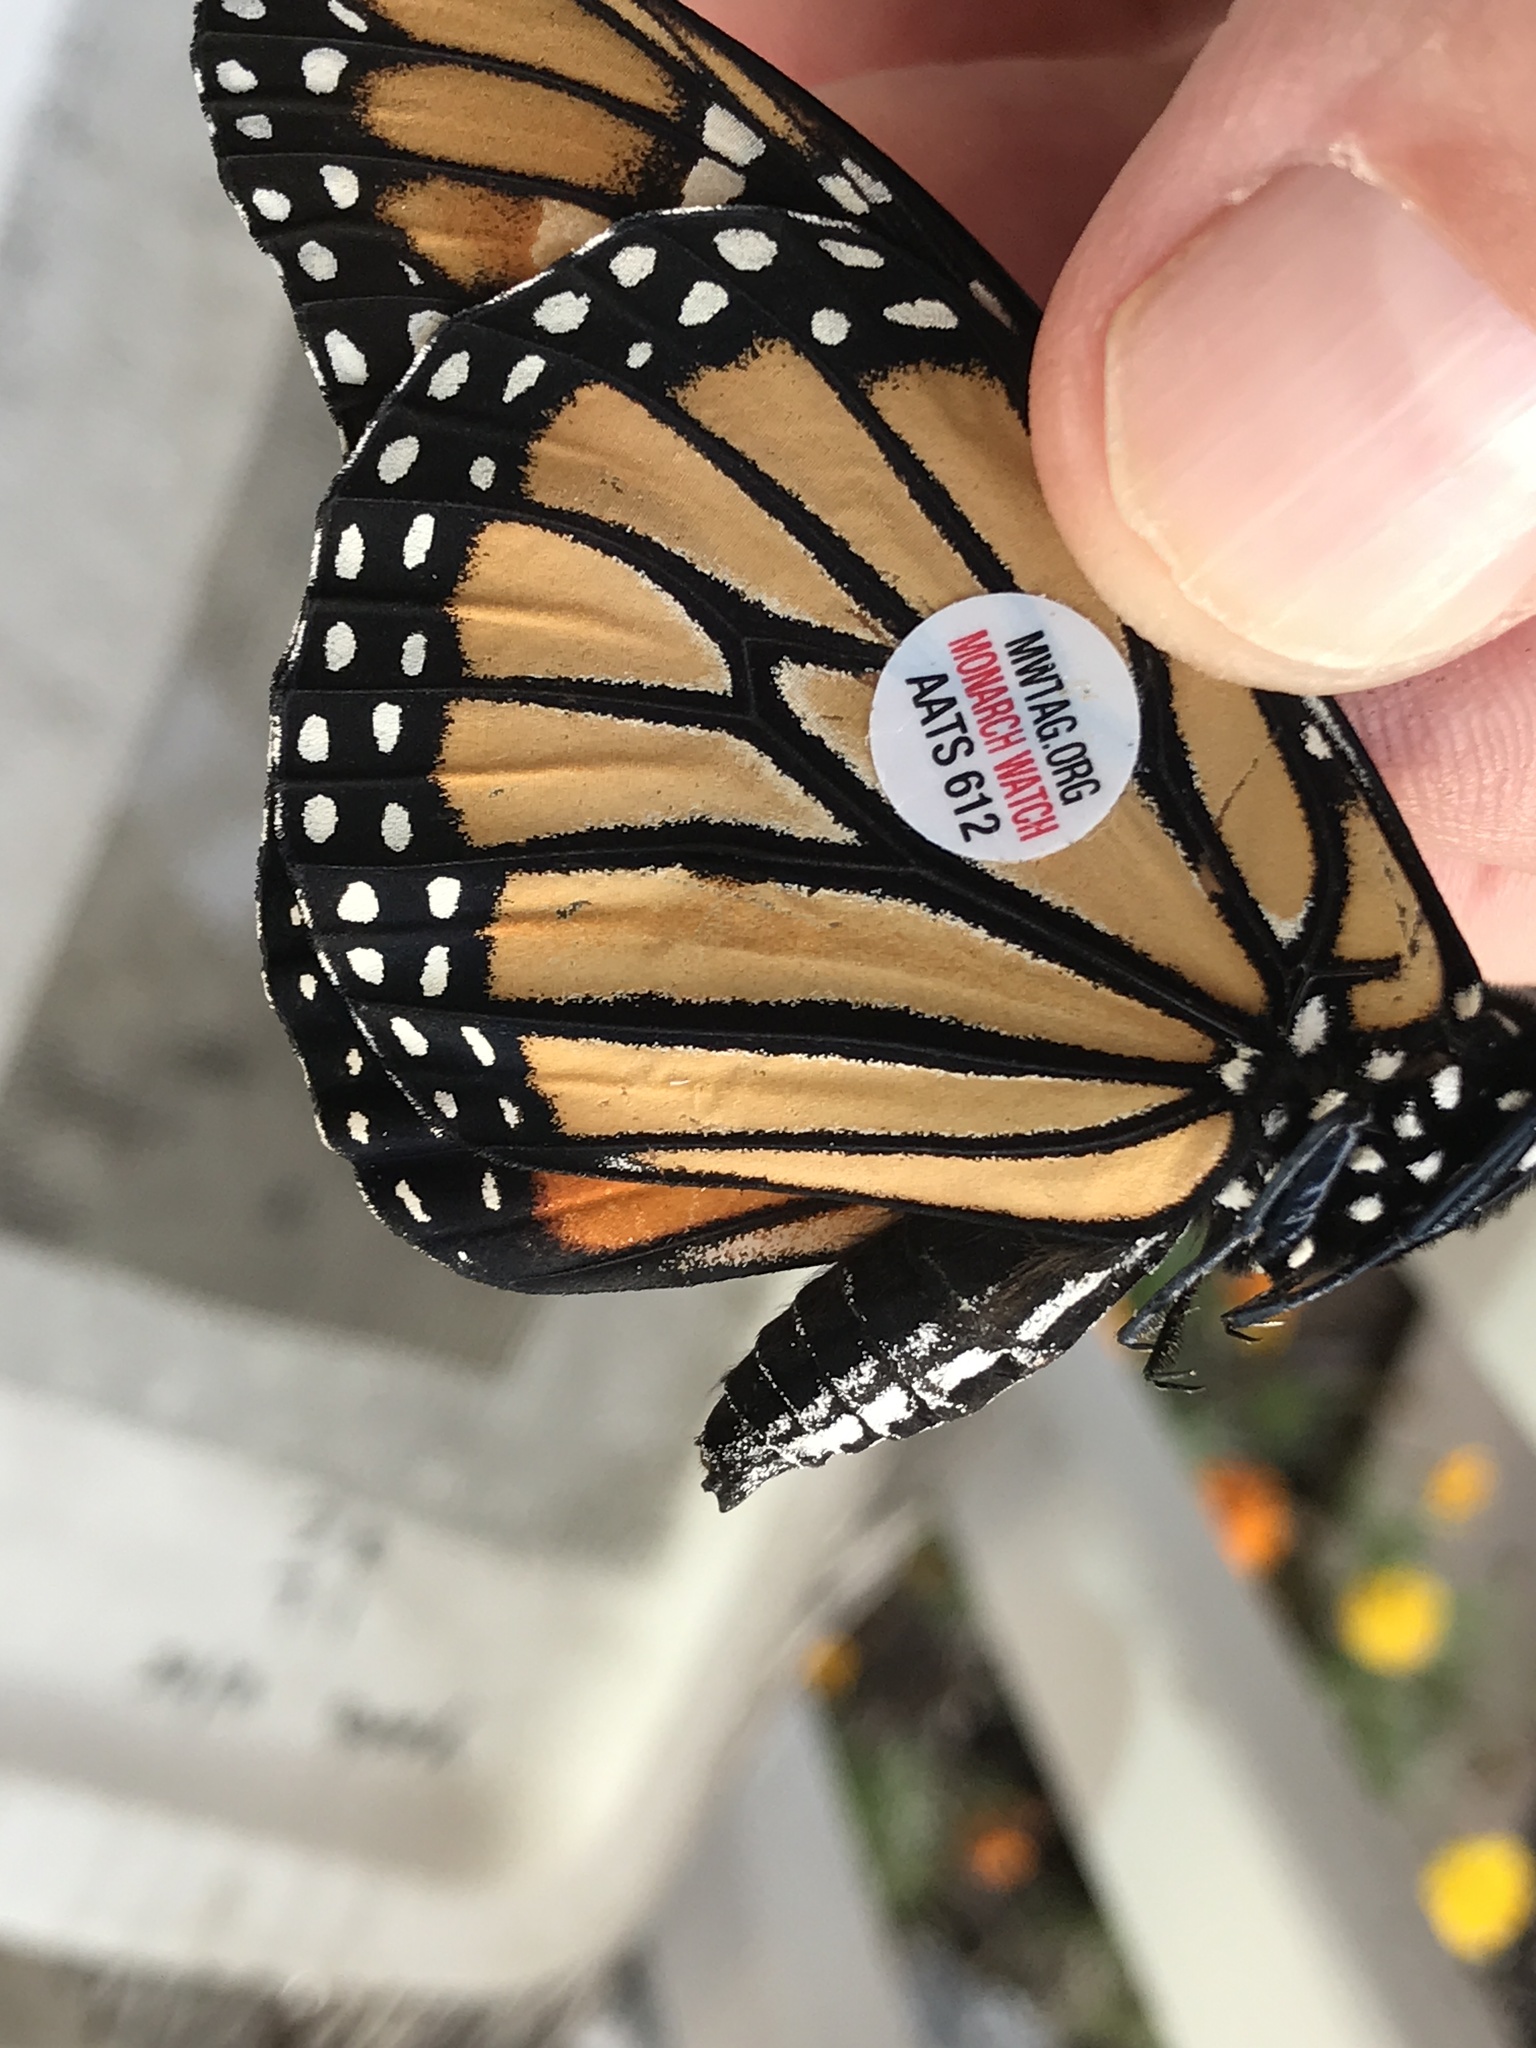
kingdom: Animalia
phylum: Arthropoda
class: Insecta
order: Lepidoptera
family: Nymphalidae
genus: Danaus
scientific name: Danaus plexippus
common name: Monarch
